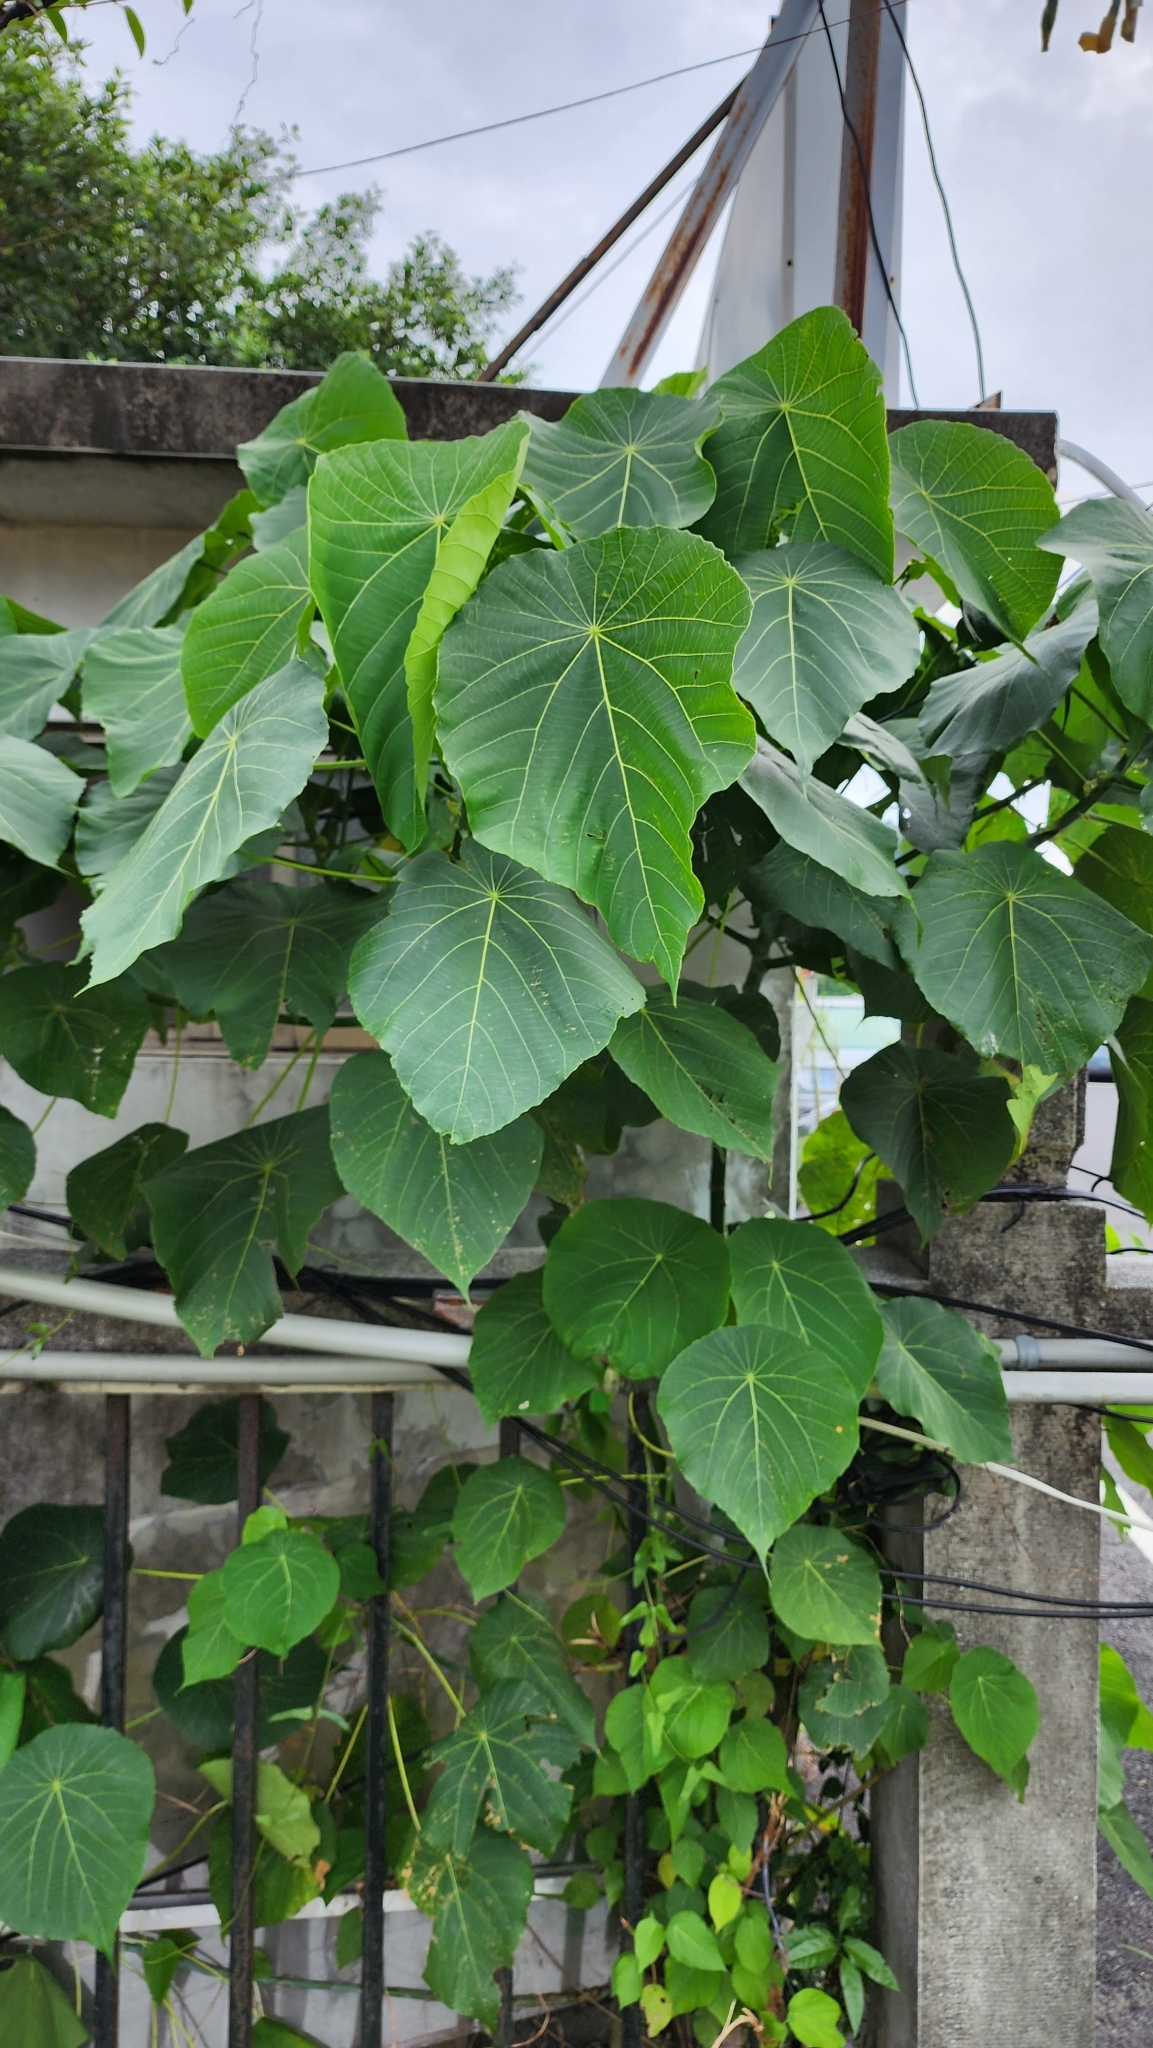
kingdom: Plantae
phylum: Tracheophyta
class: Magnoliopsida
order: Malpighiales
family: Euphorbiaceae
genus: Macaranga
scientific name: Macaranga tanarius
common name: Parasol leaf tree
